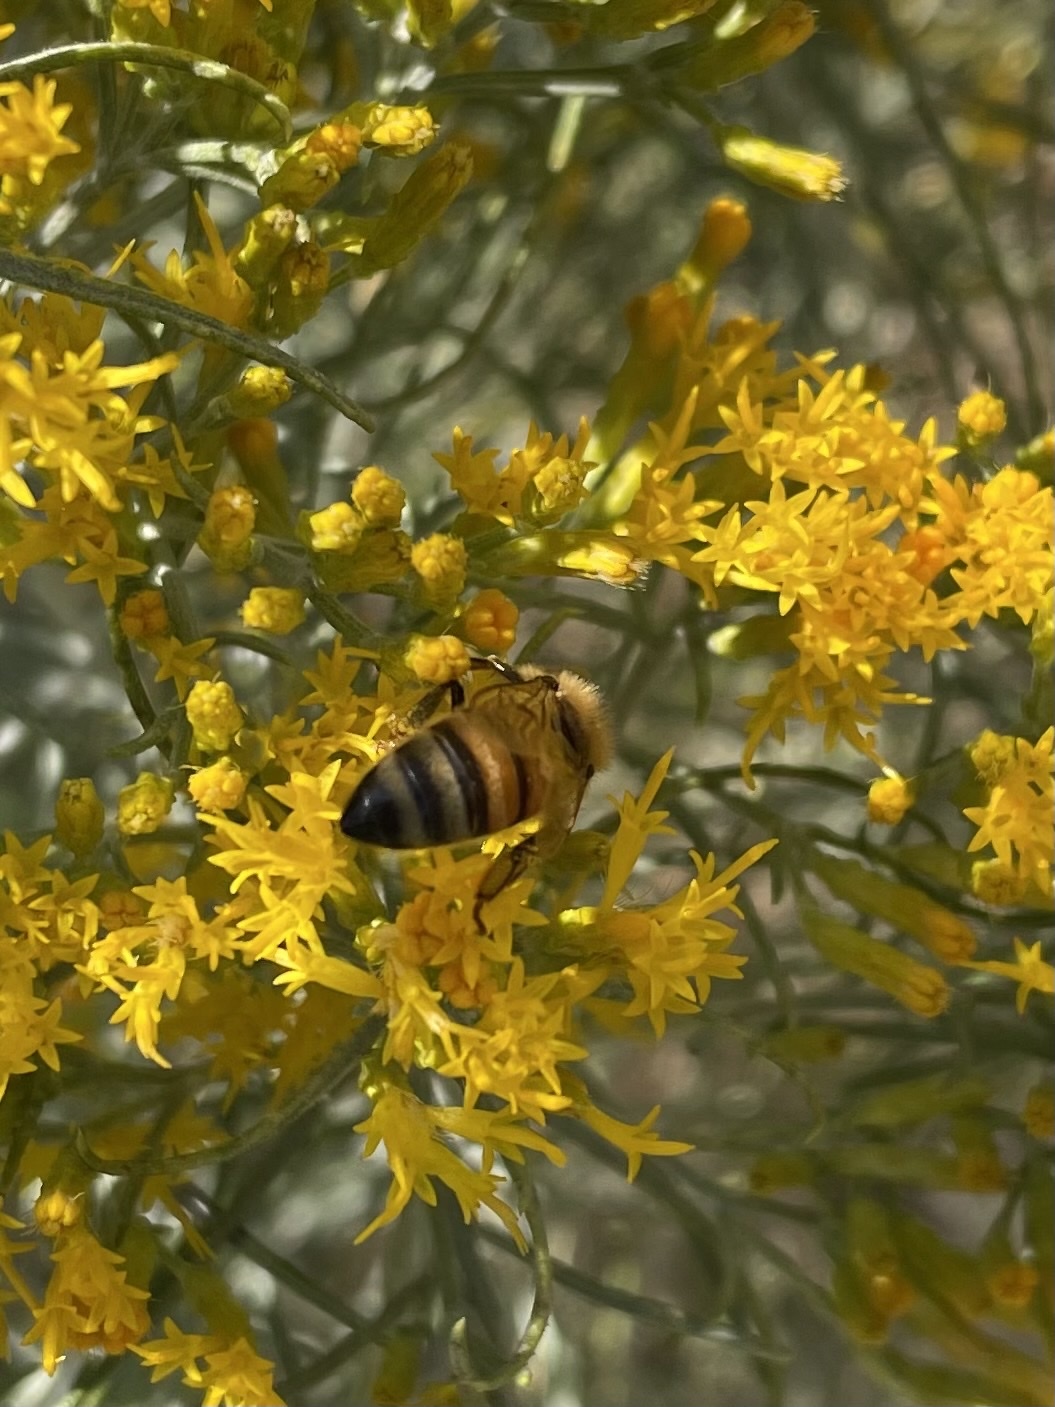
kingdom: Animalia
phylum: Arthropoda
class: Insecta
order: Hymenoptera
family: Apidae
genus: Apis
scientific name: Apis mellifera
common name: Honey bee
